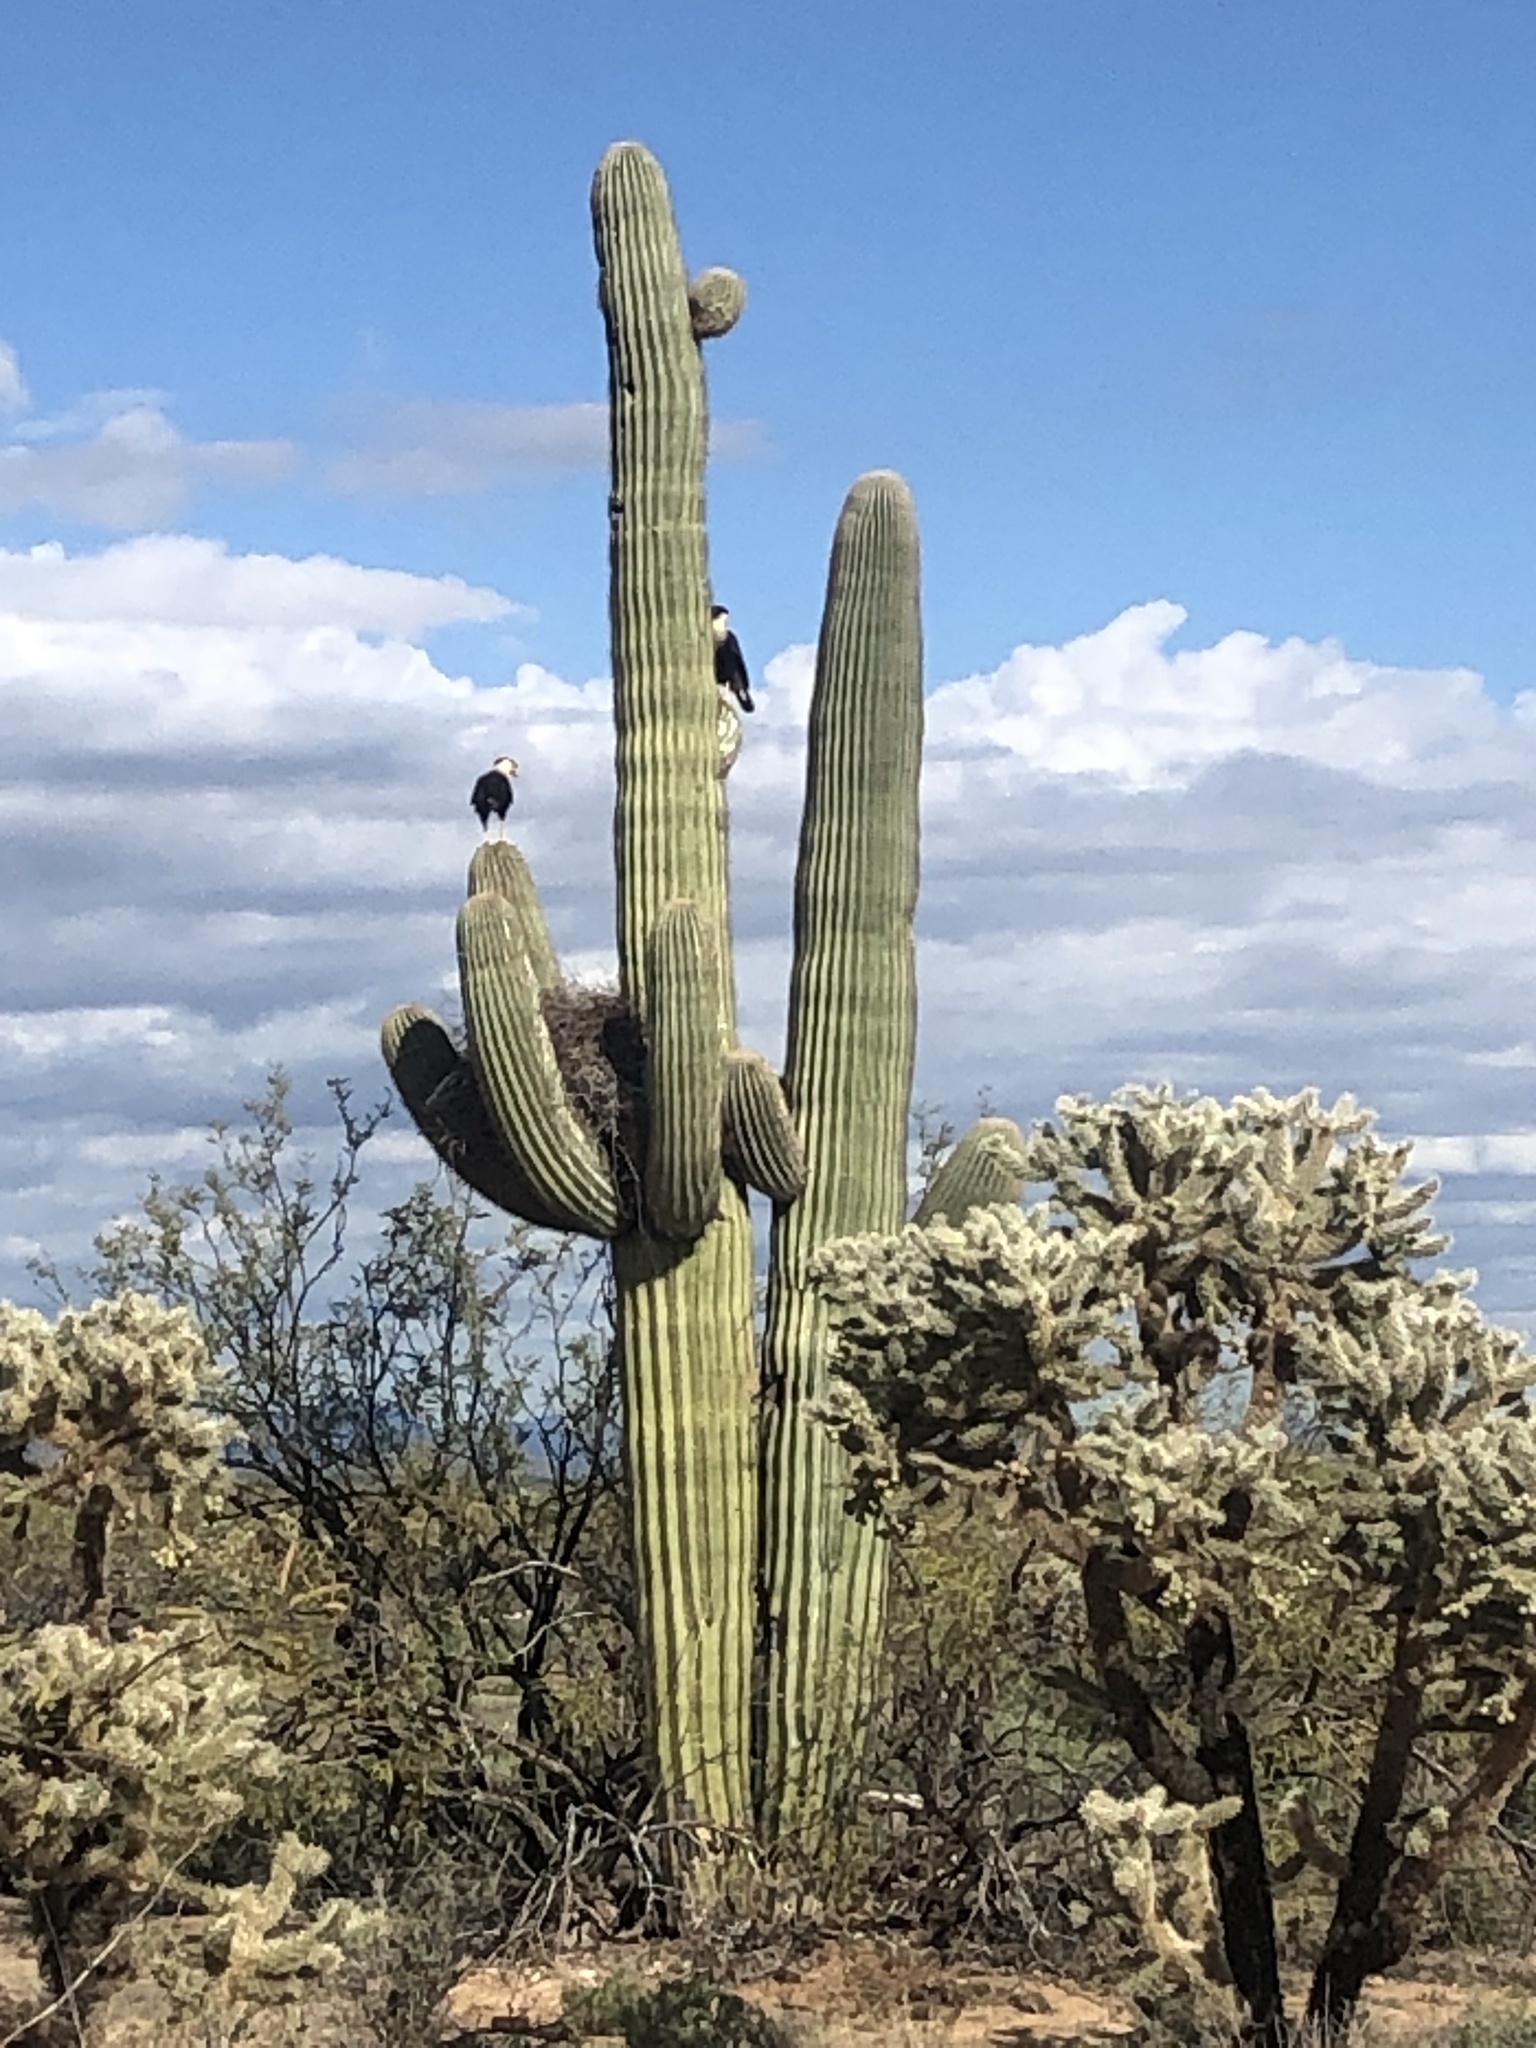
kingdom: Animalia
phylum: Chordata
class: Aves
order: Falconiformes
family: Falconidae
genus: Caracara
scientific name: Caracara plancus
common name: Southern caracara
